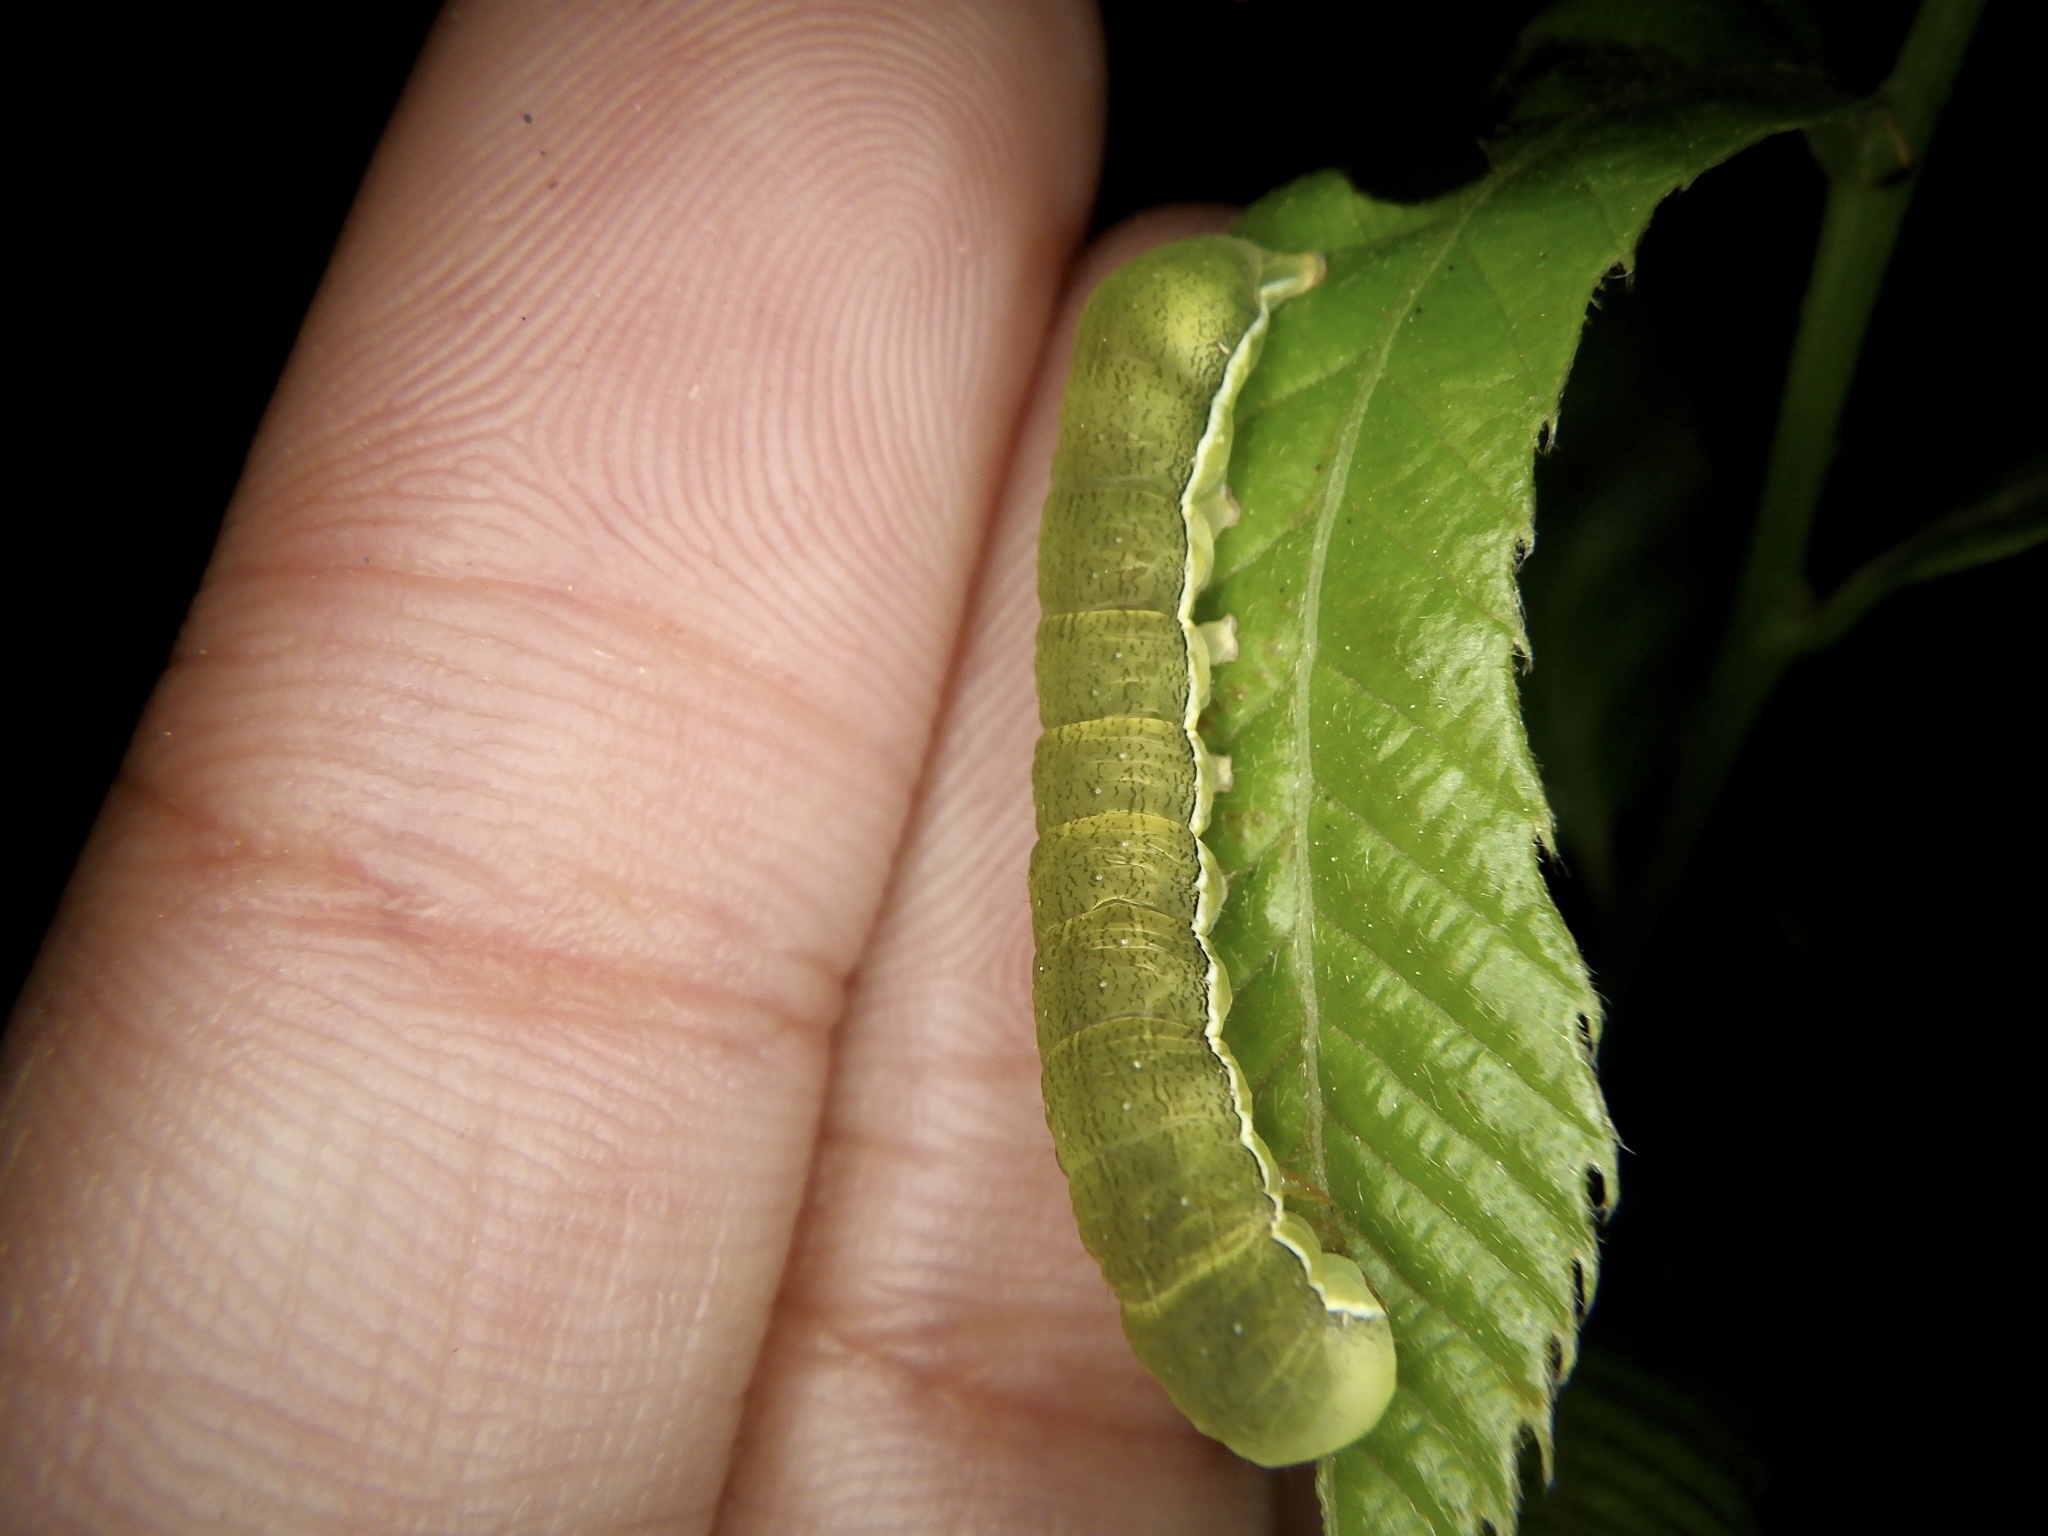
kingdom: Animalia
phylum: Arthropoda
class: Insecta
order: Lepidoptera
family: Noctuidae
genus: Xylena
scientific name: Xylena formosa
